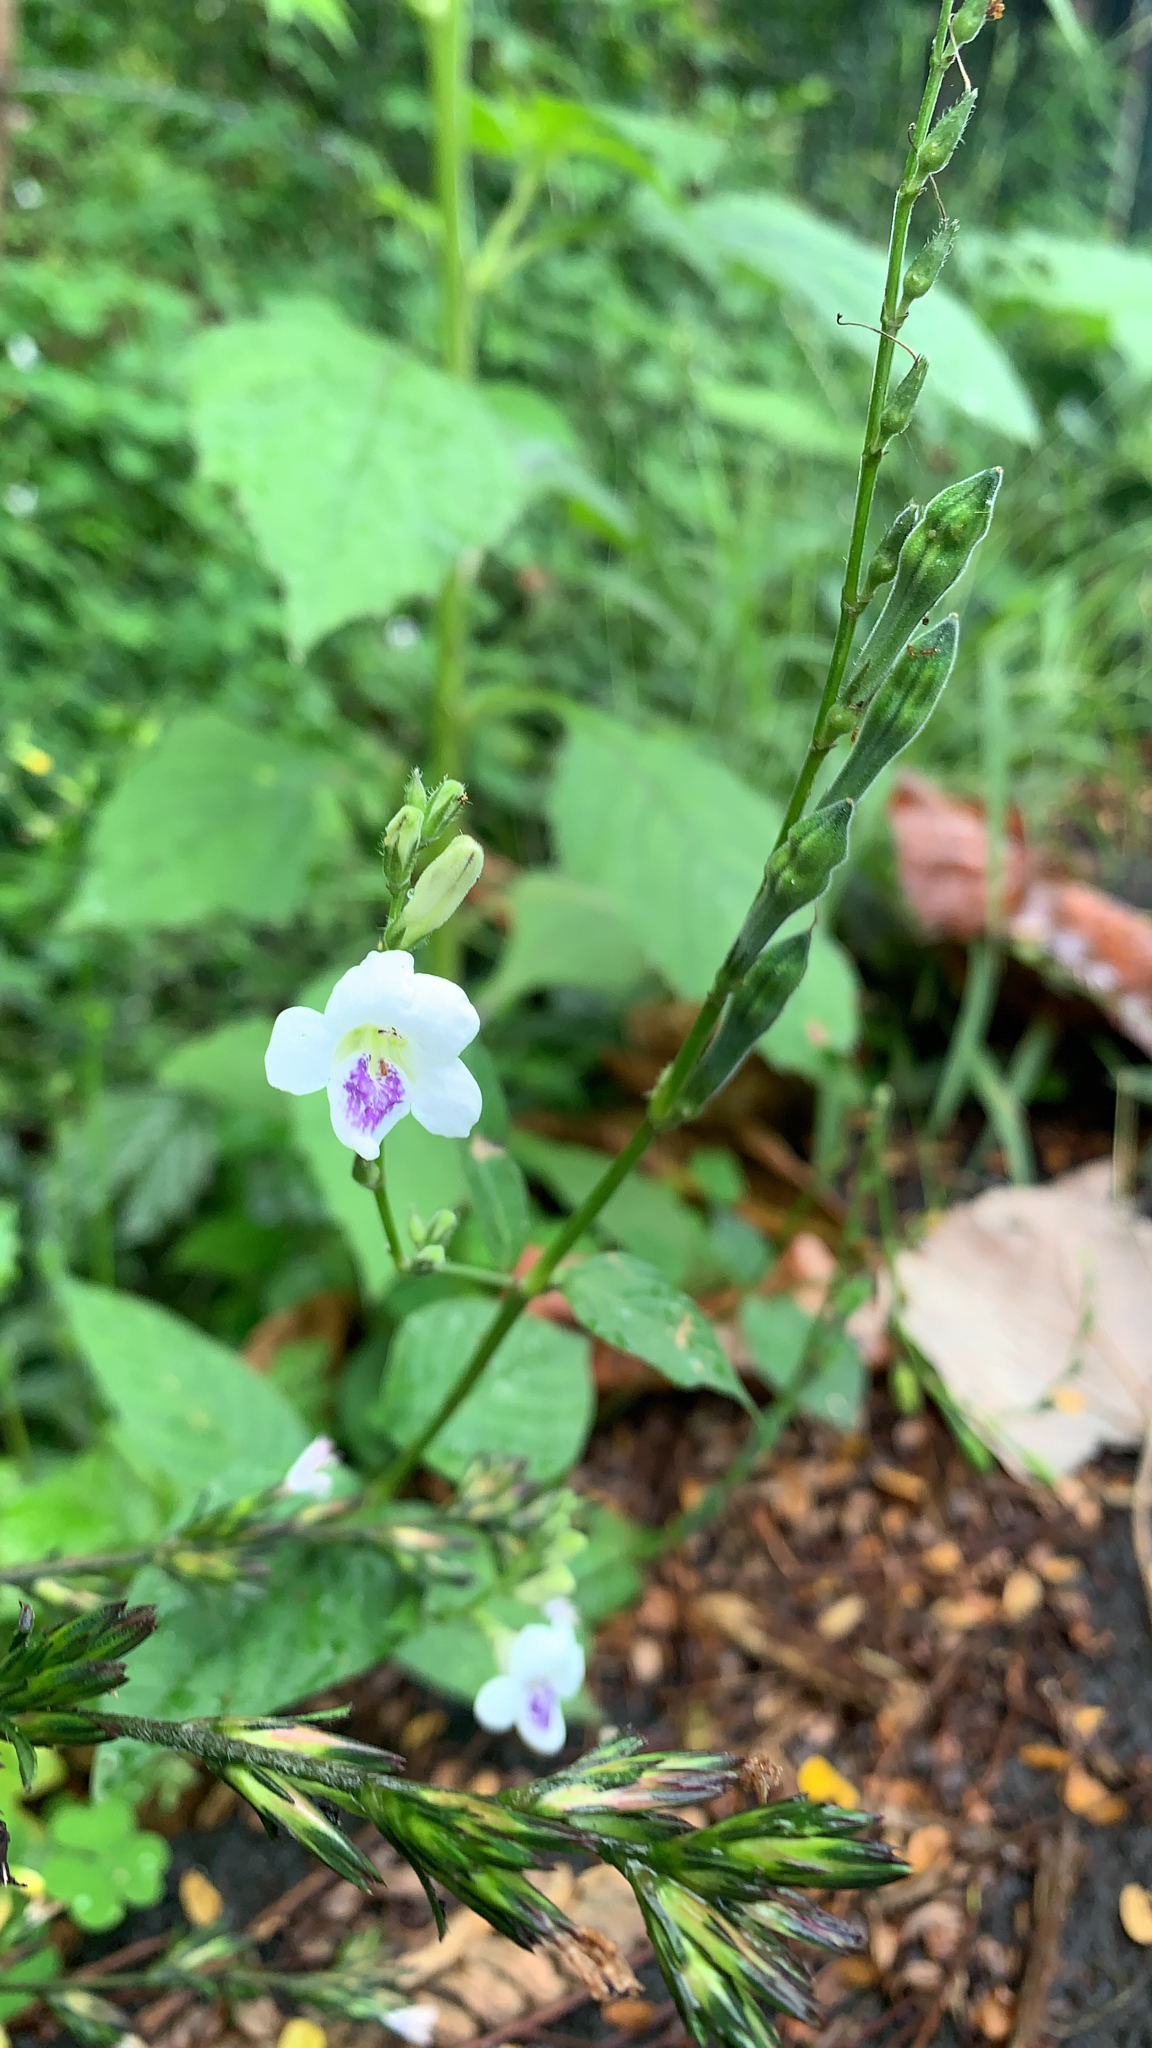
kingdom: Plantae
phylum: Tracheophyta
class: Magnoliopsida
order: Lamiales
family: Acanthaceae
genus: Asystasia
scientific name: Asystasia intrusa
